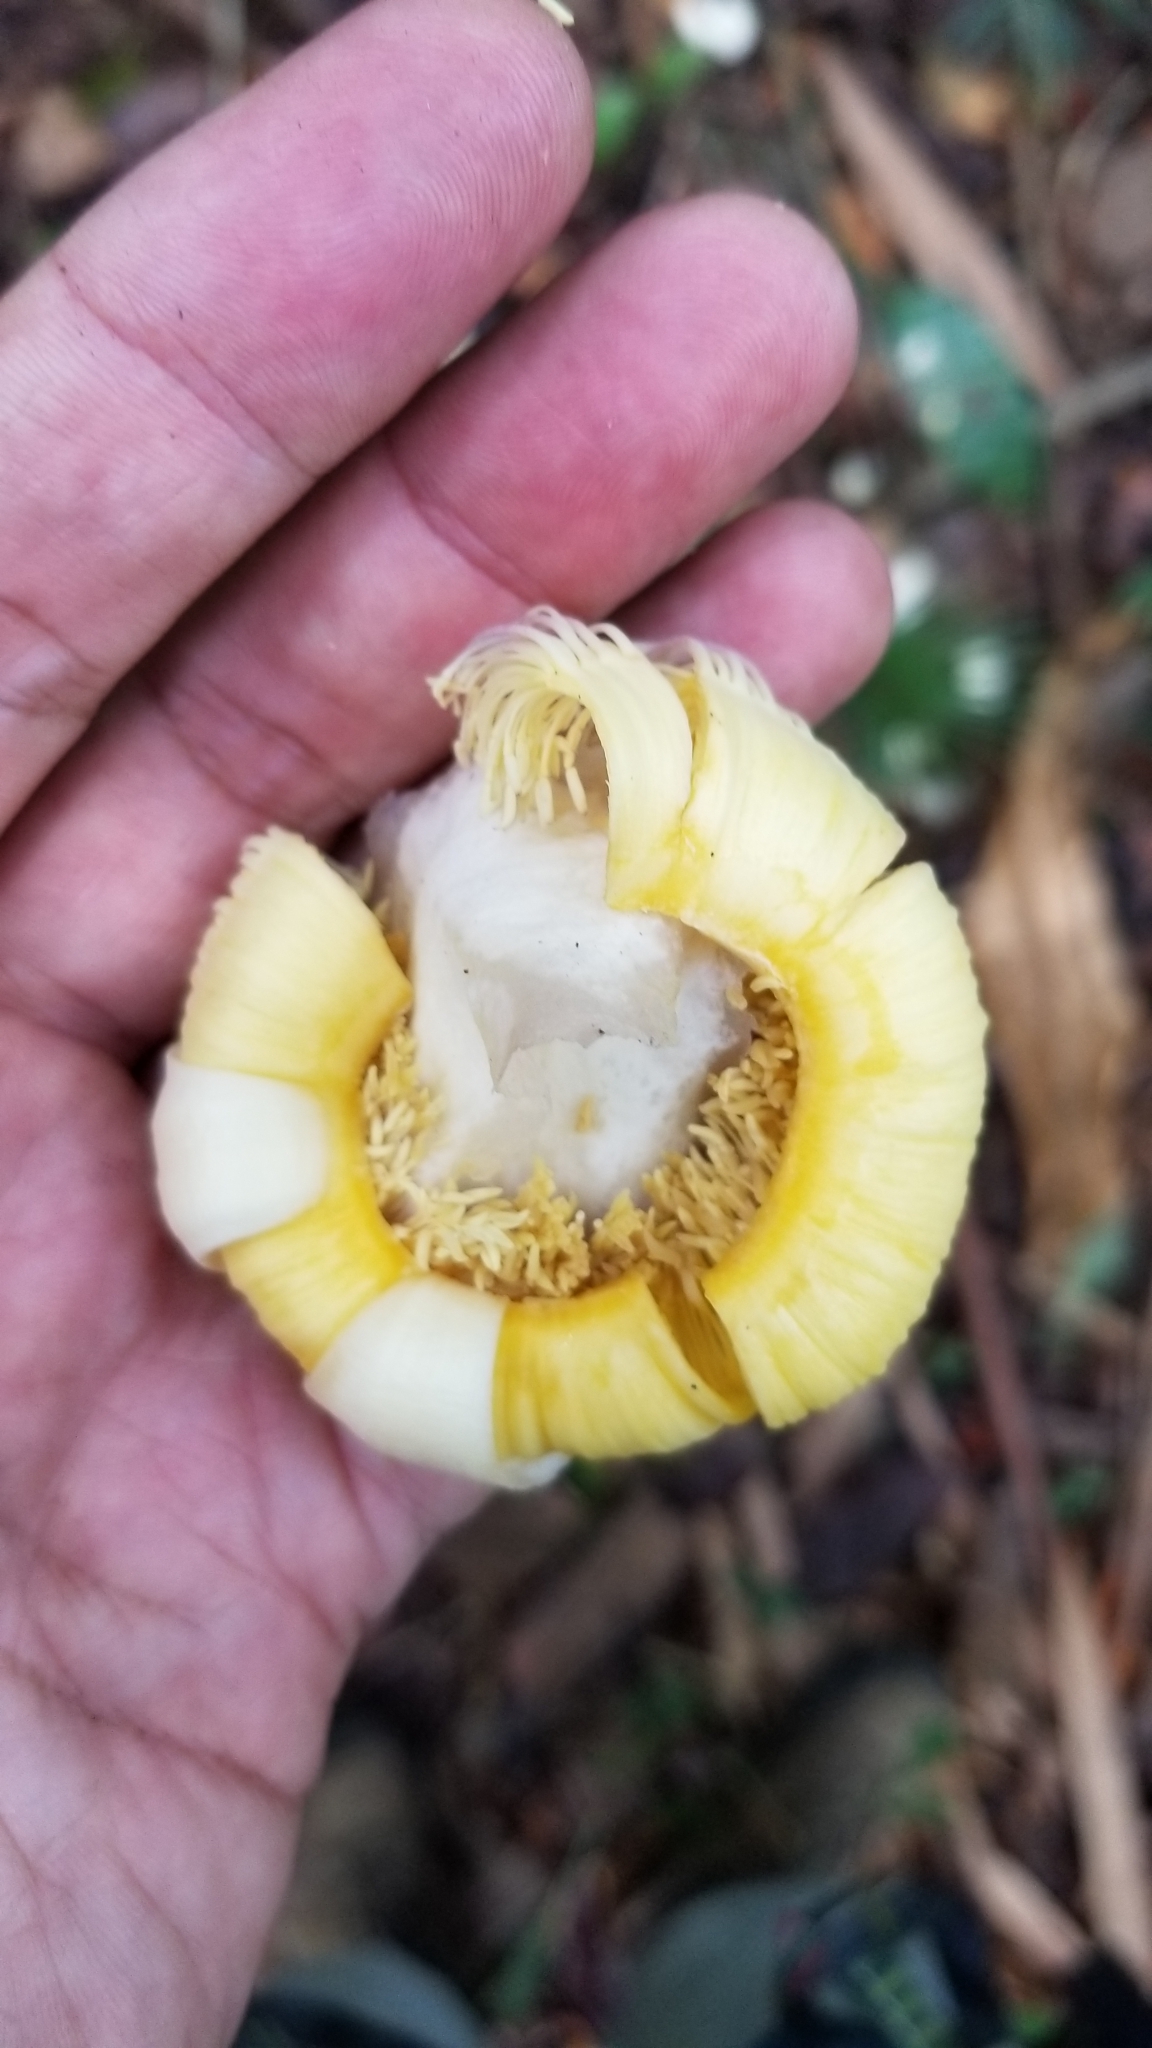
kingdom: Plantae
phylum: Tracheophyta
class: Magnoliopsida
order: Ericales
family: Lecythidaceae
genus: Gustavia
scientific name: Gustavia superba
